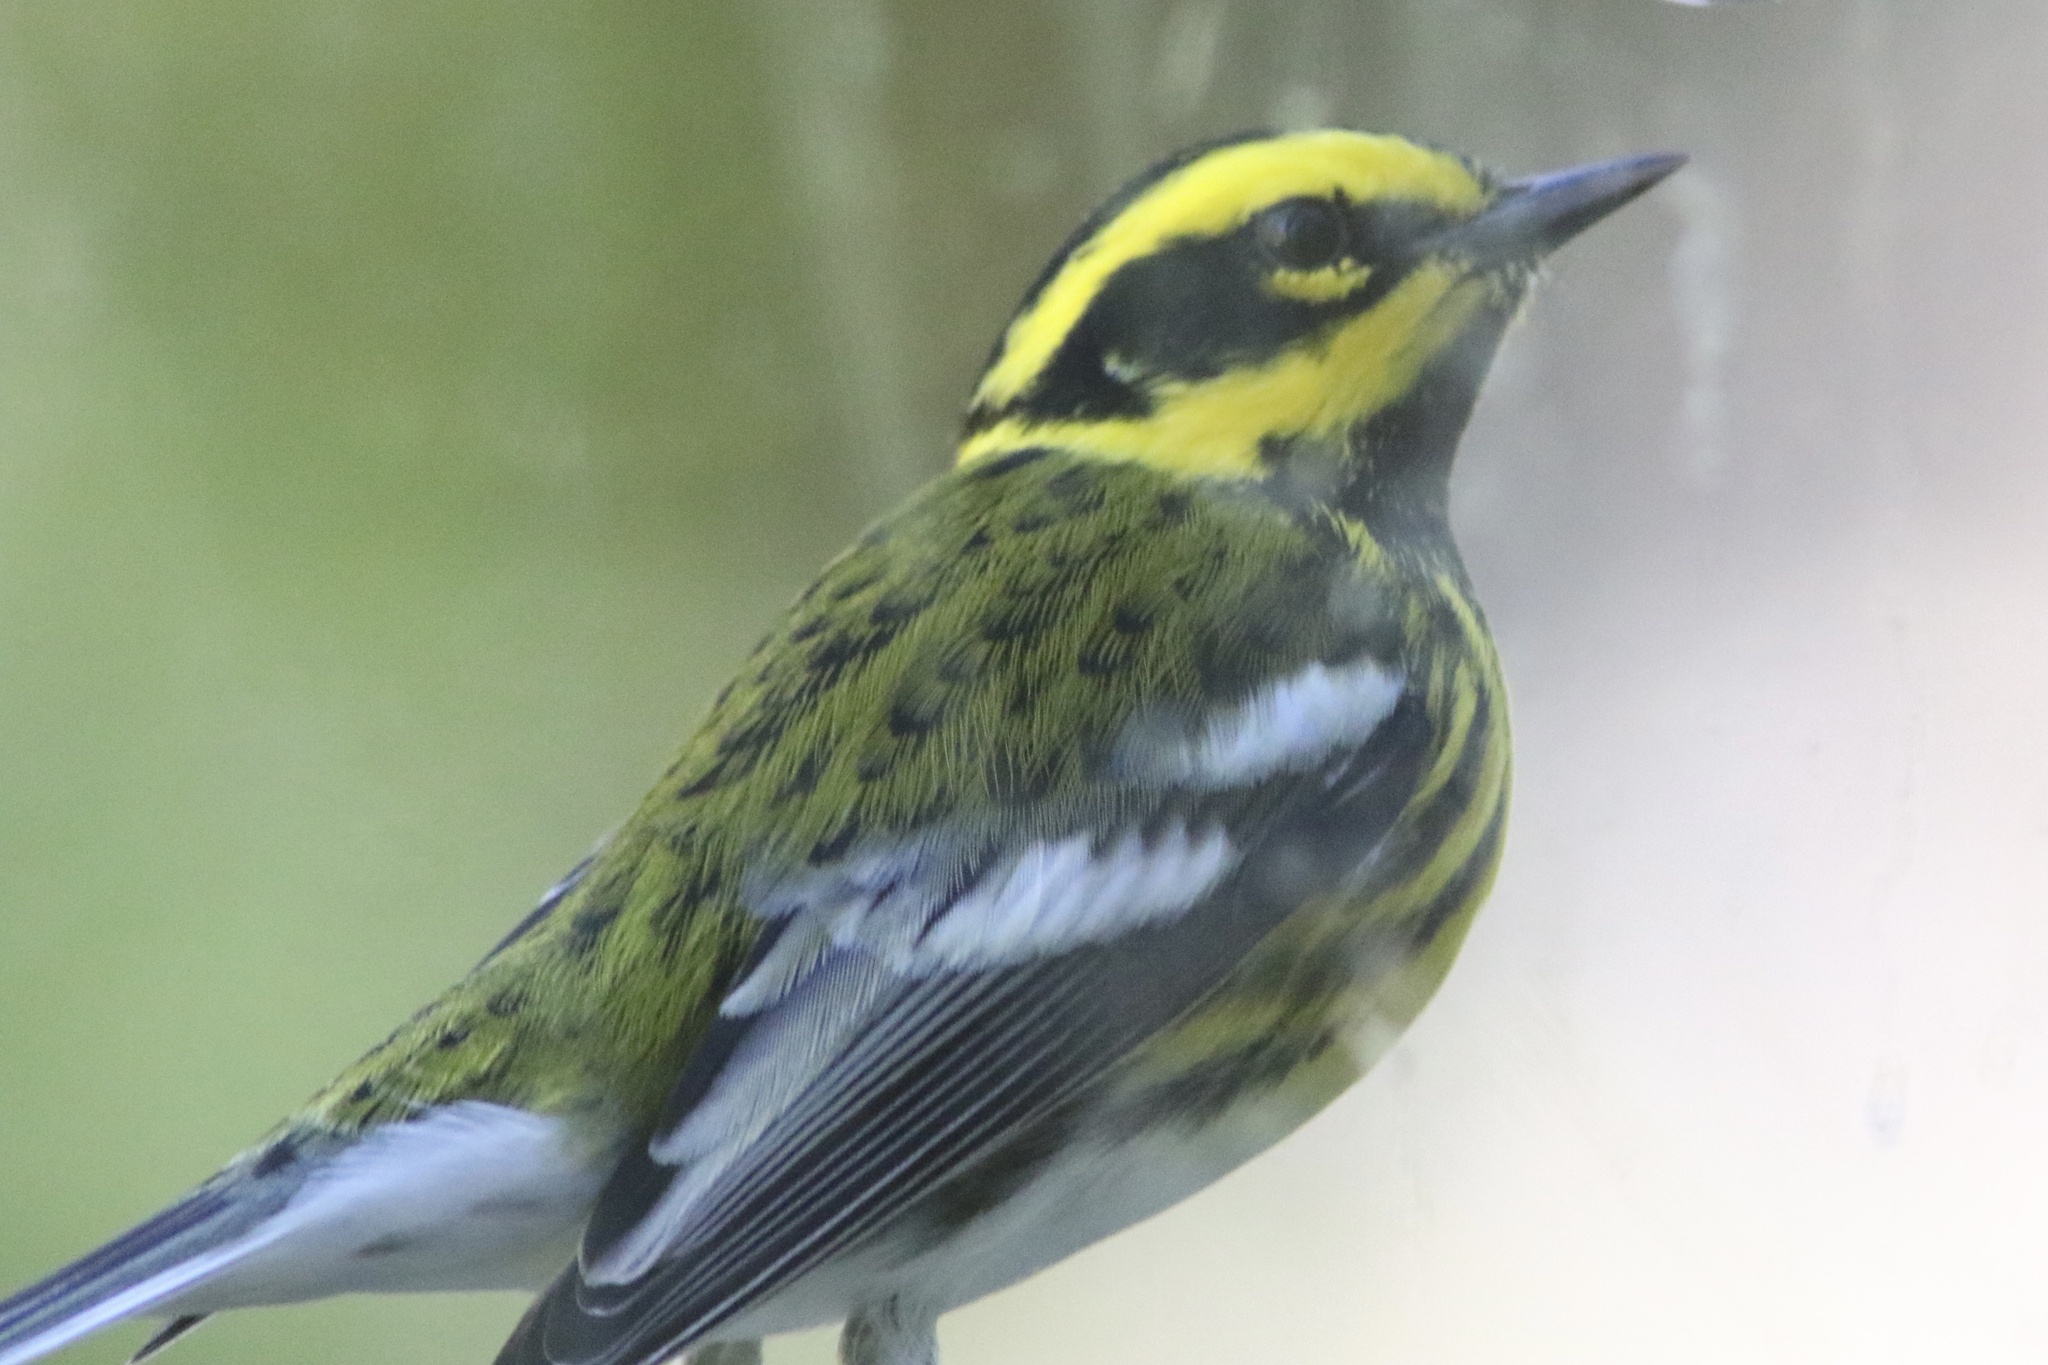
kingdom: Animalia
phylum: Chordata
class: Aves
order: Passeriformes
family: Parulidae
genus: Setophaga
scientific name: Setophaga townsendi
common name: Townsend's warbler
